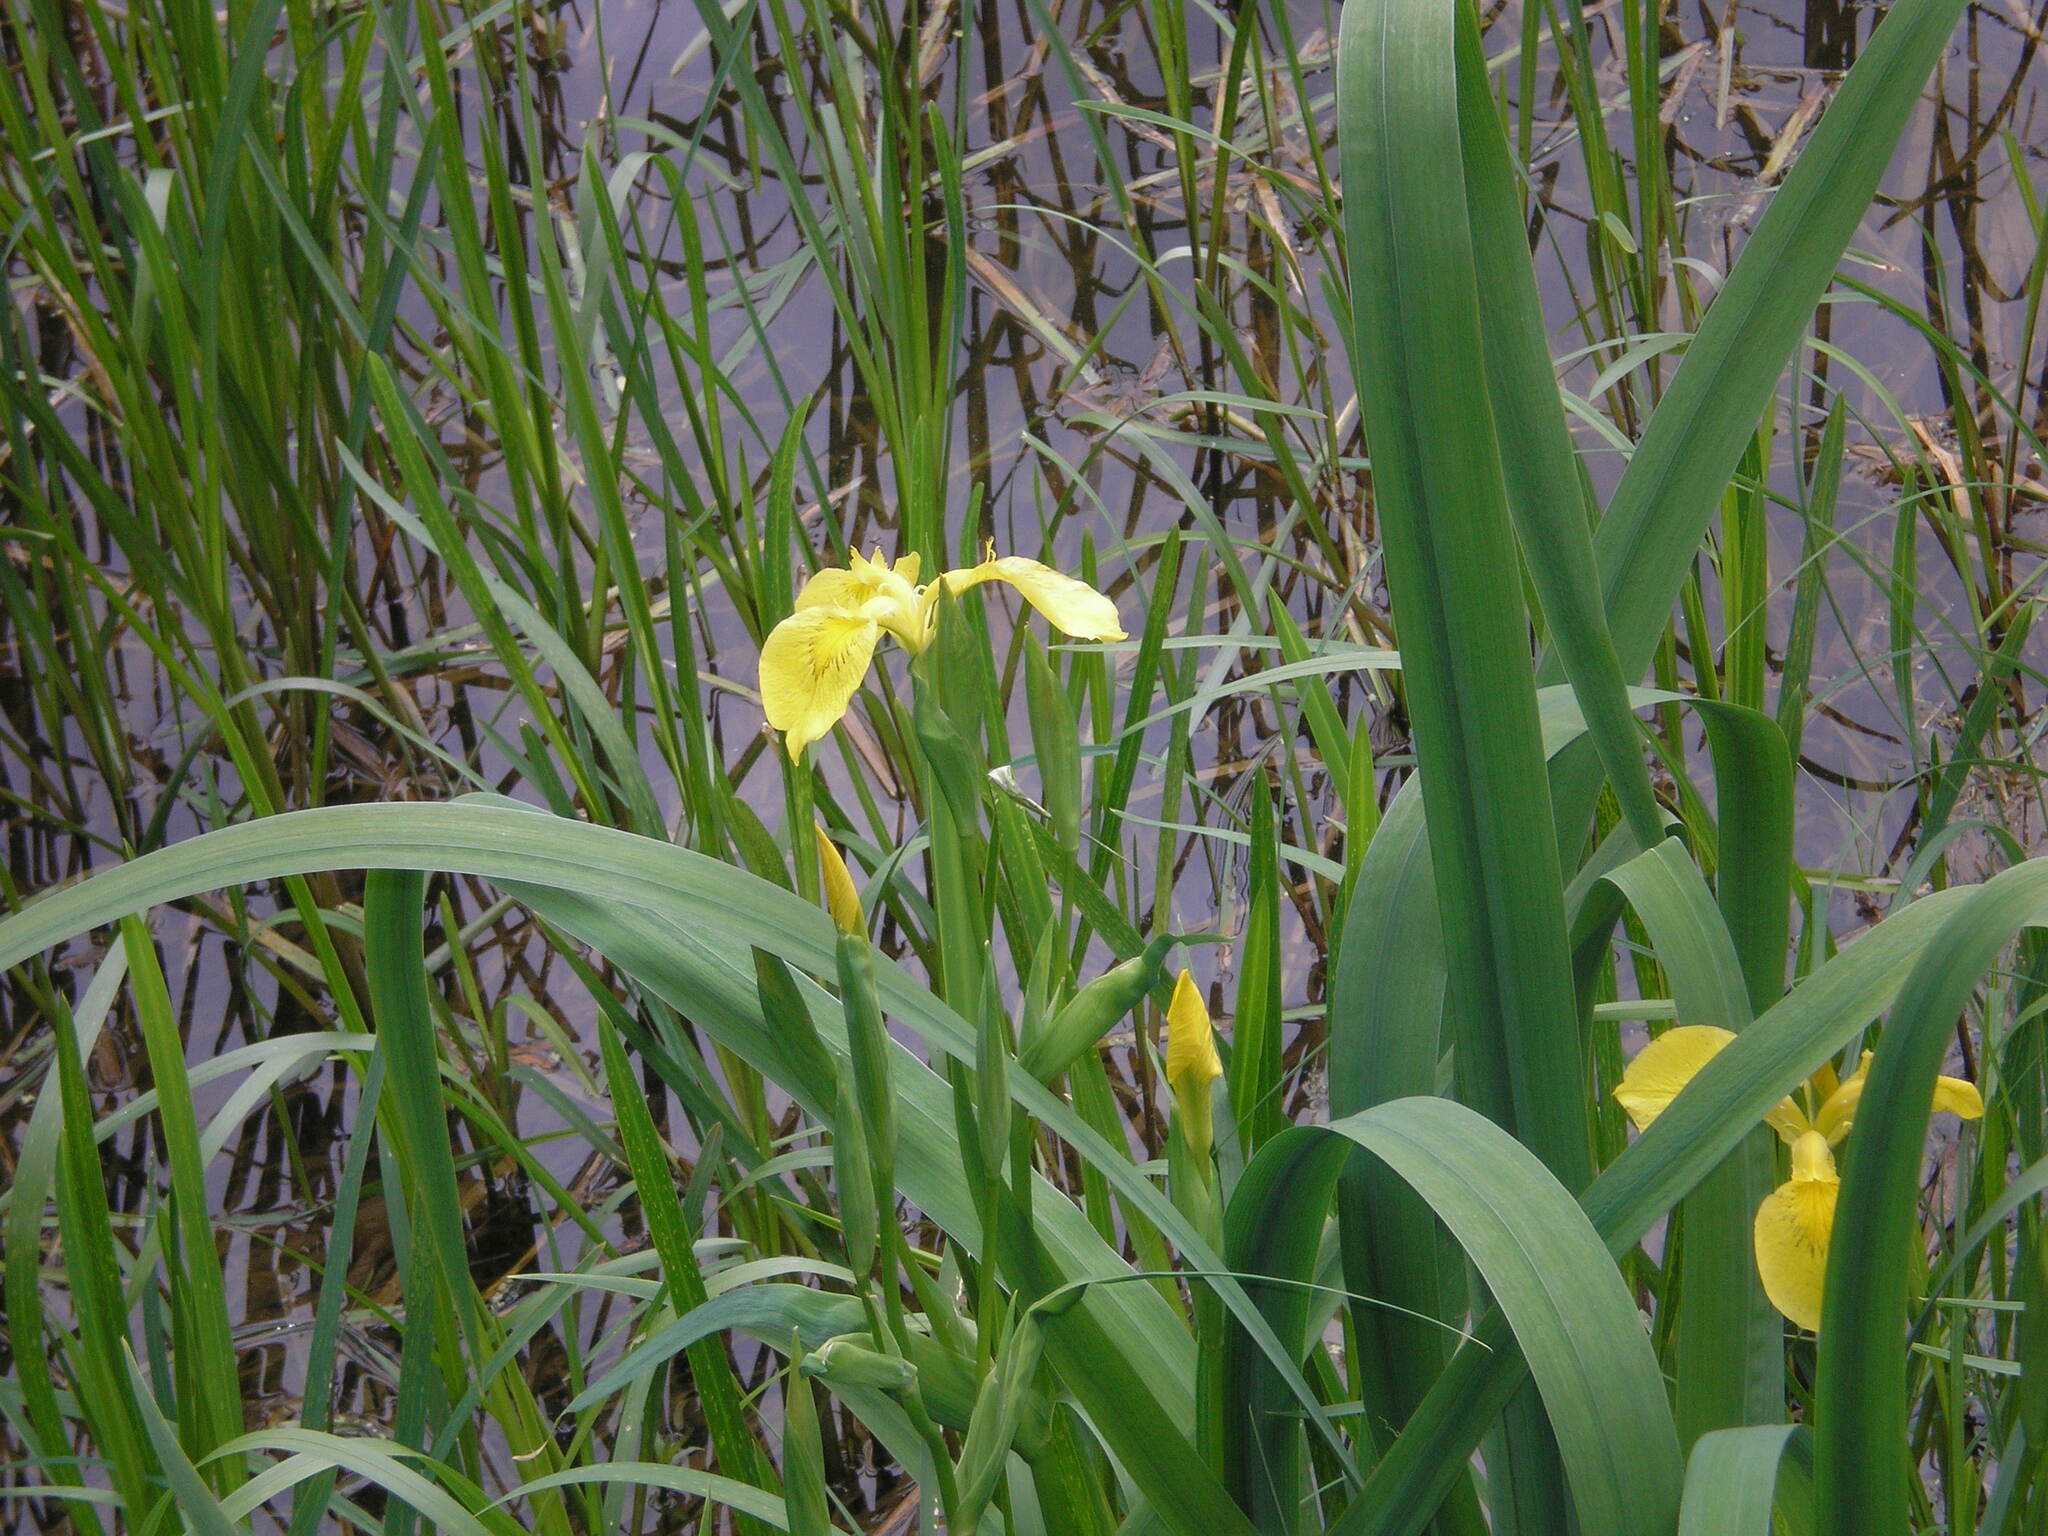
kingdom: Plantae
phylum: Tracheophyta
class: Liliopsida
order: Asparagales
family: Iridaceae
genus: Iris
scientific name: Iris pseudacorus
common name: Yellow flag
